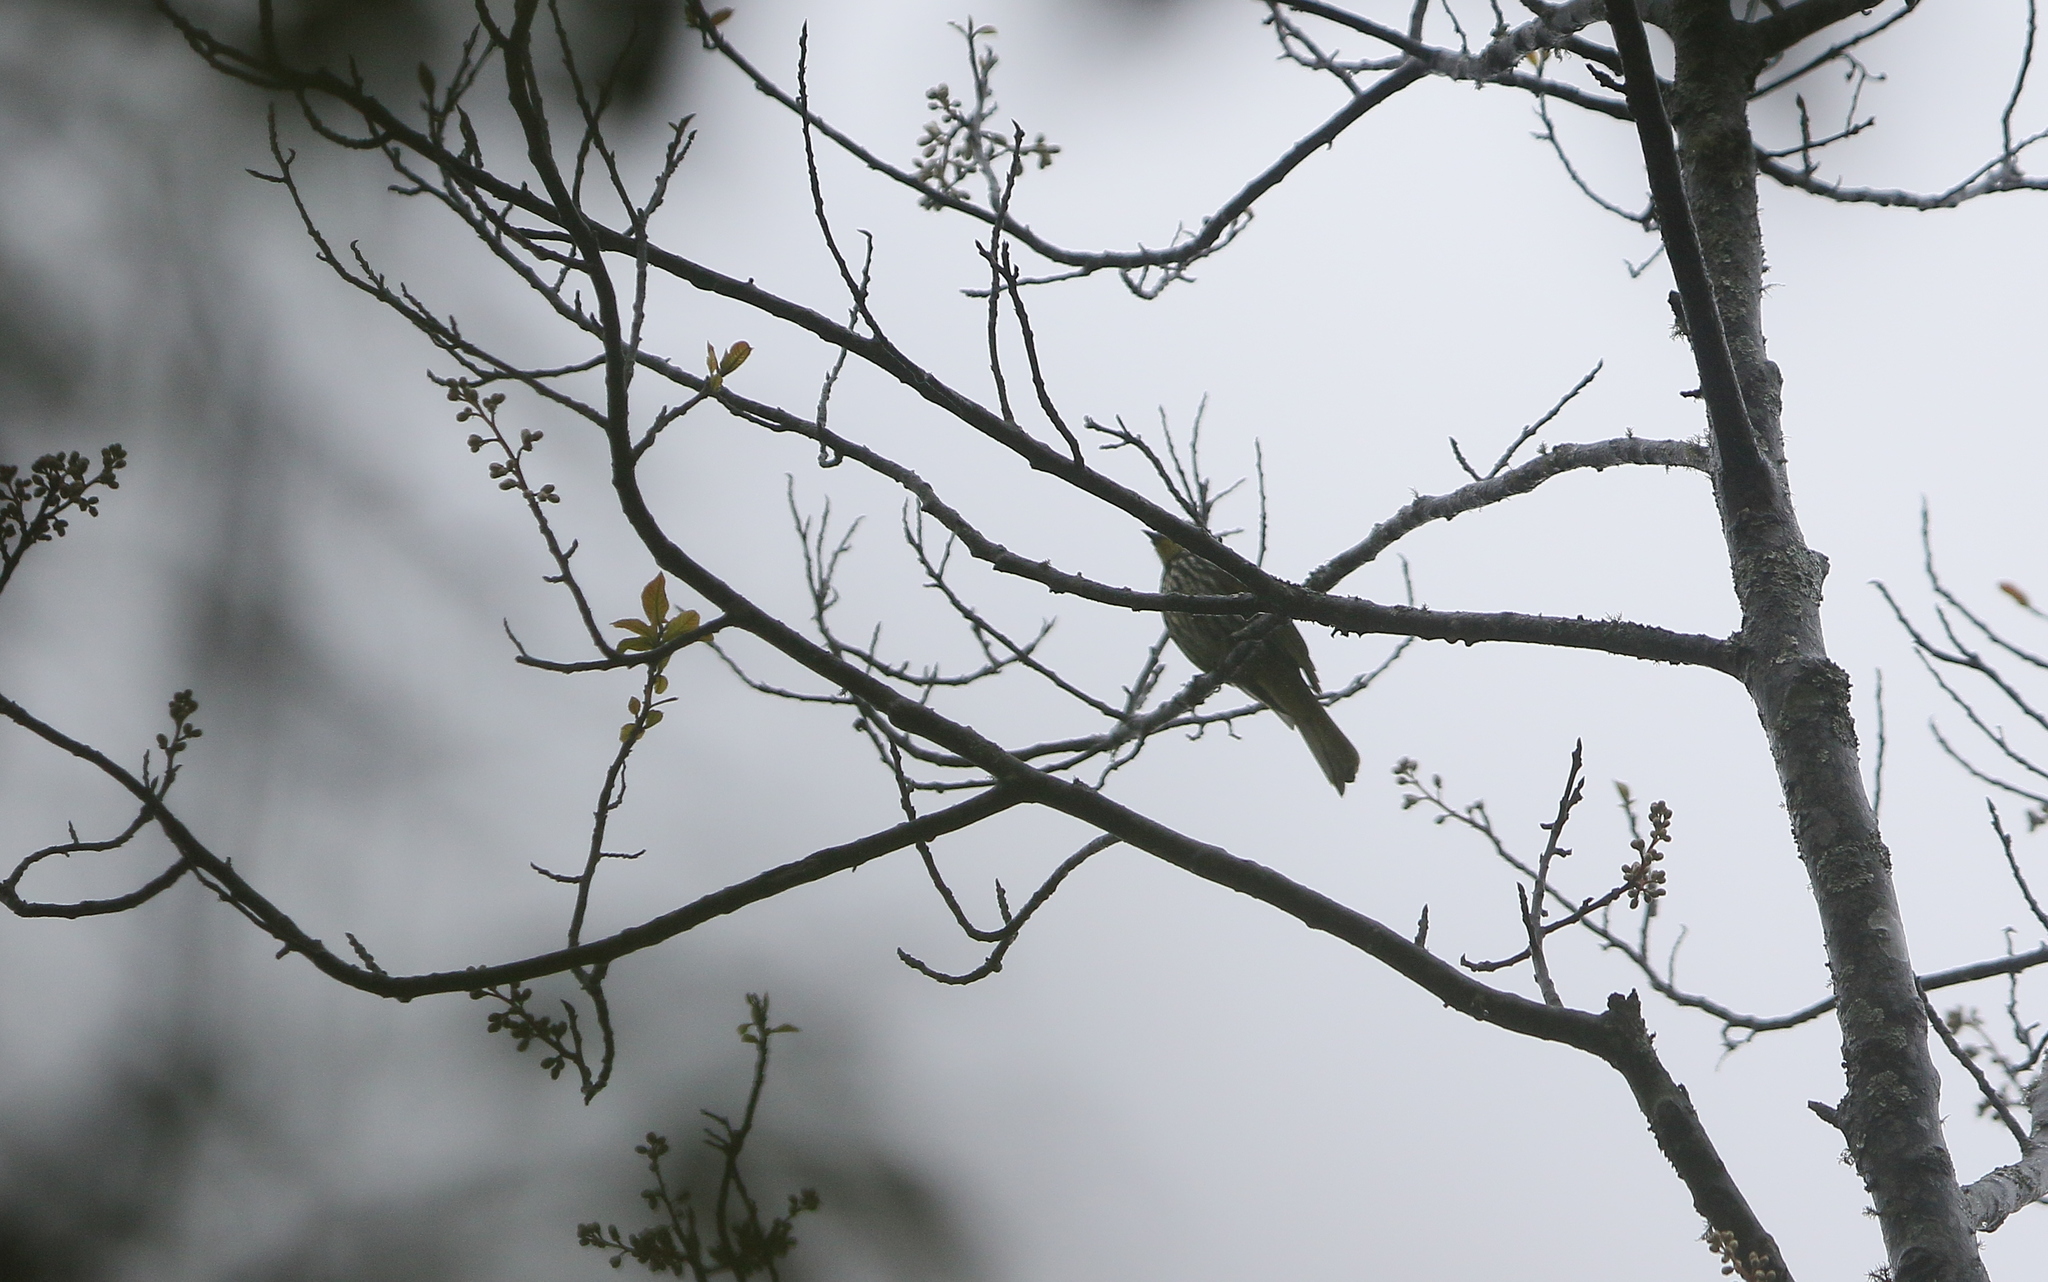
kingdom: Animalia
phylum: Chordata
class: Aves
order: Passeriformes
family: Pycnonotidae
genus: Pycnonotus
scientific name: Pycnonotus striatus
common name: Striated bulbul
